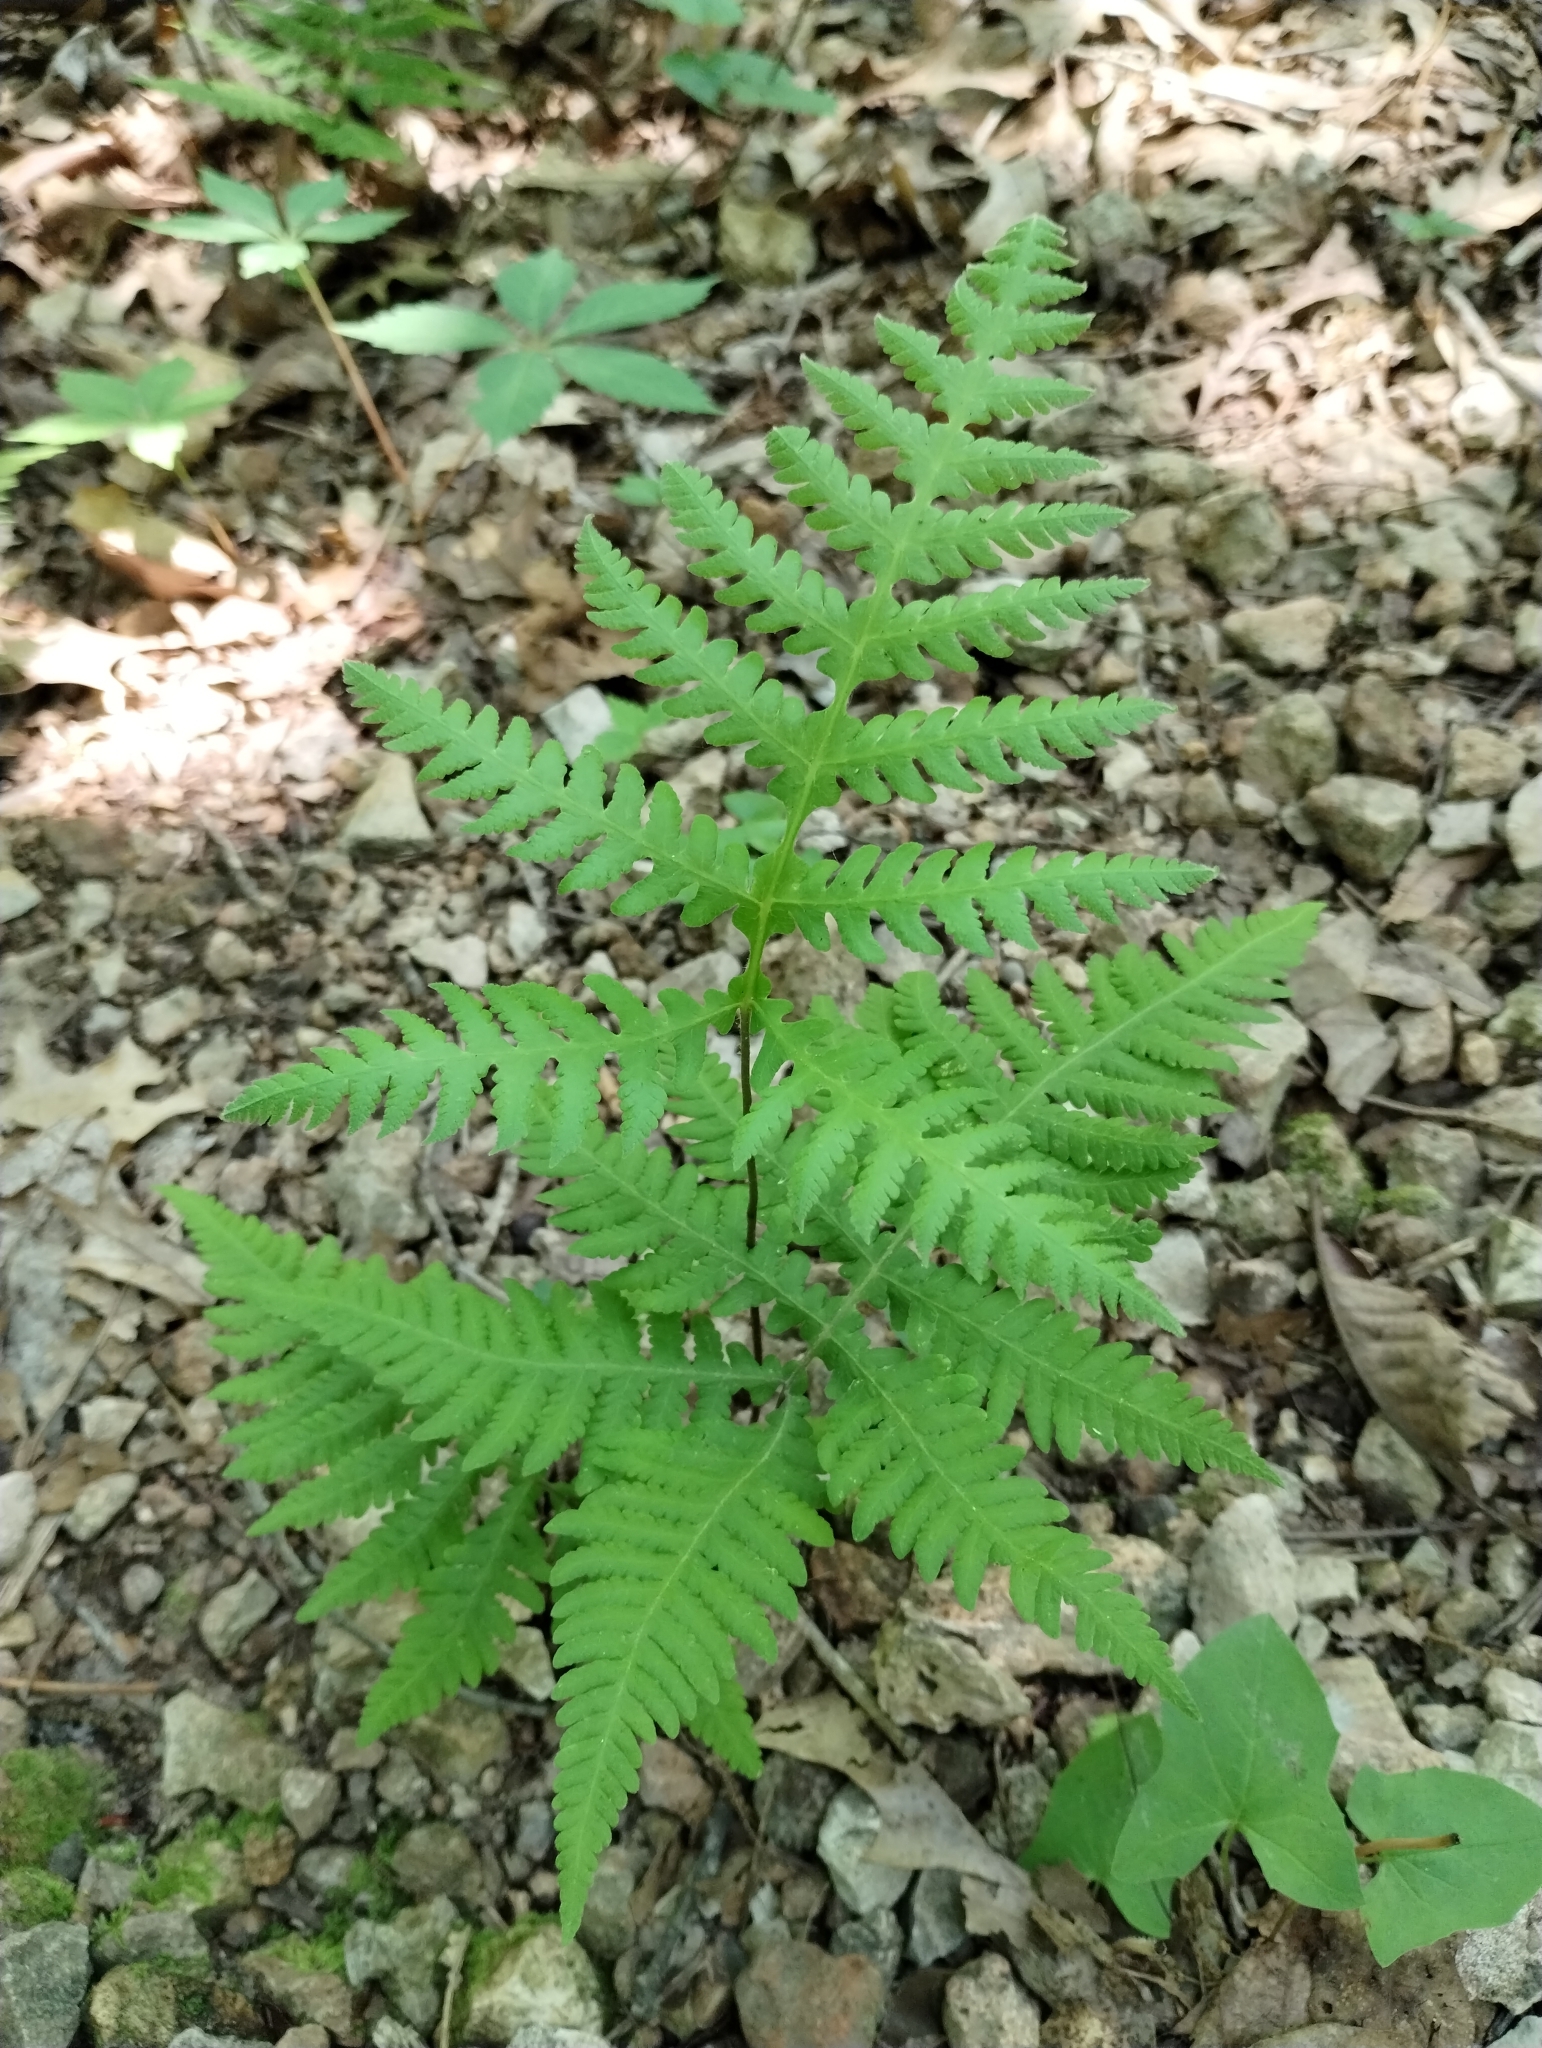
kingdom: Plantae
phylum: Tracheophyta
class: Polypodiopsida
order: Polypodiales
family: Thelypteridaceae
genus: Phegopteris
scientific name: Phegopteris hexagonoptera
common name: Broad beech fern
